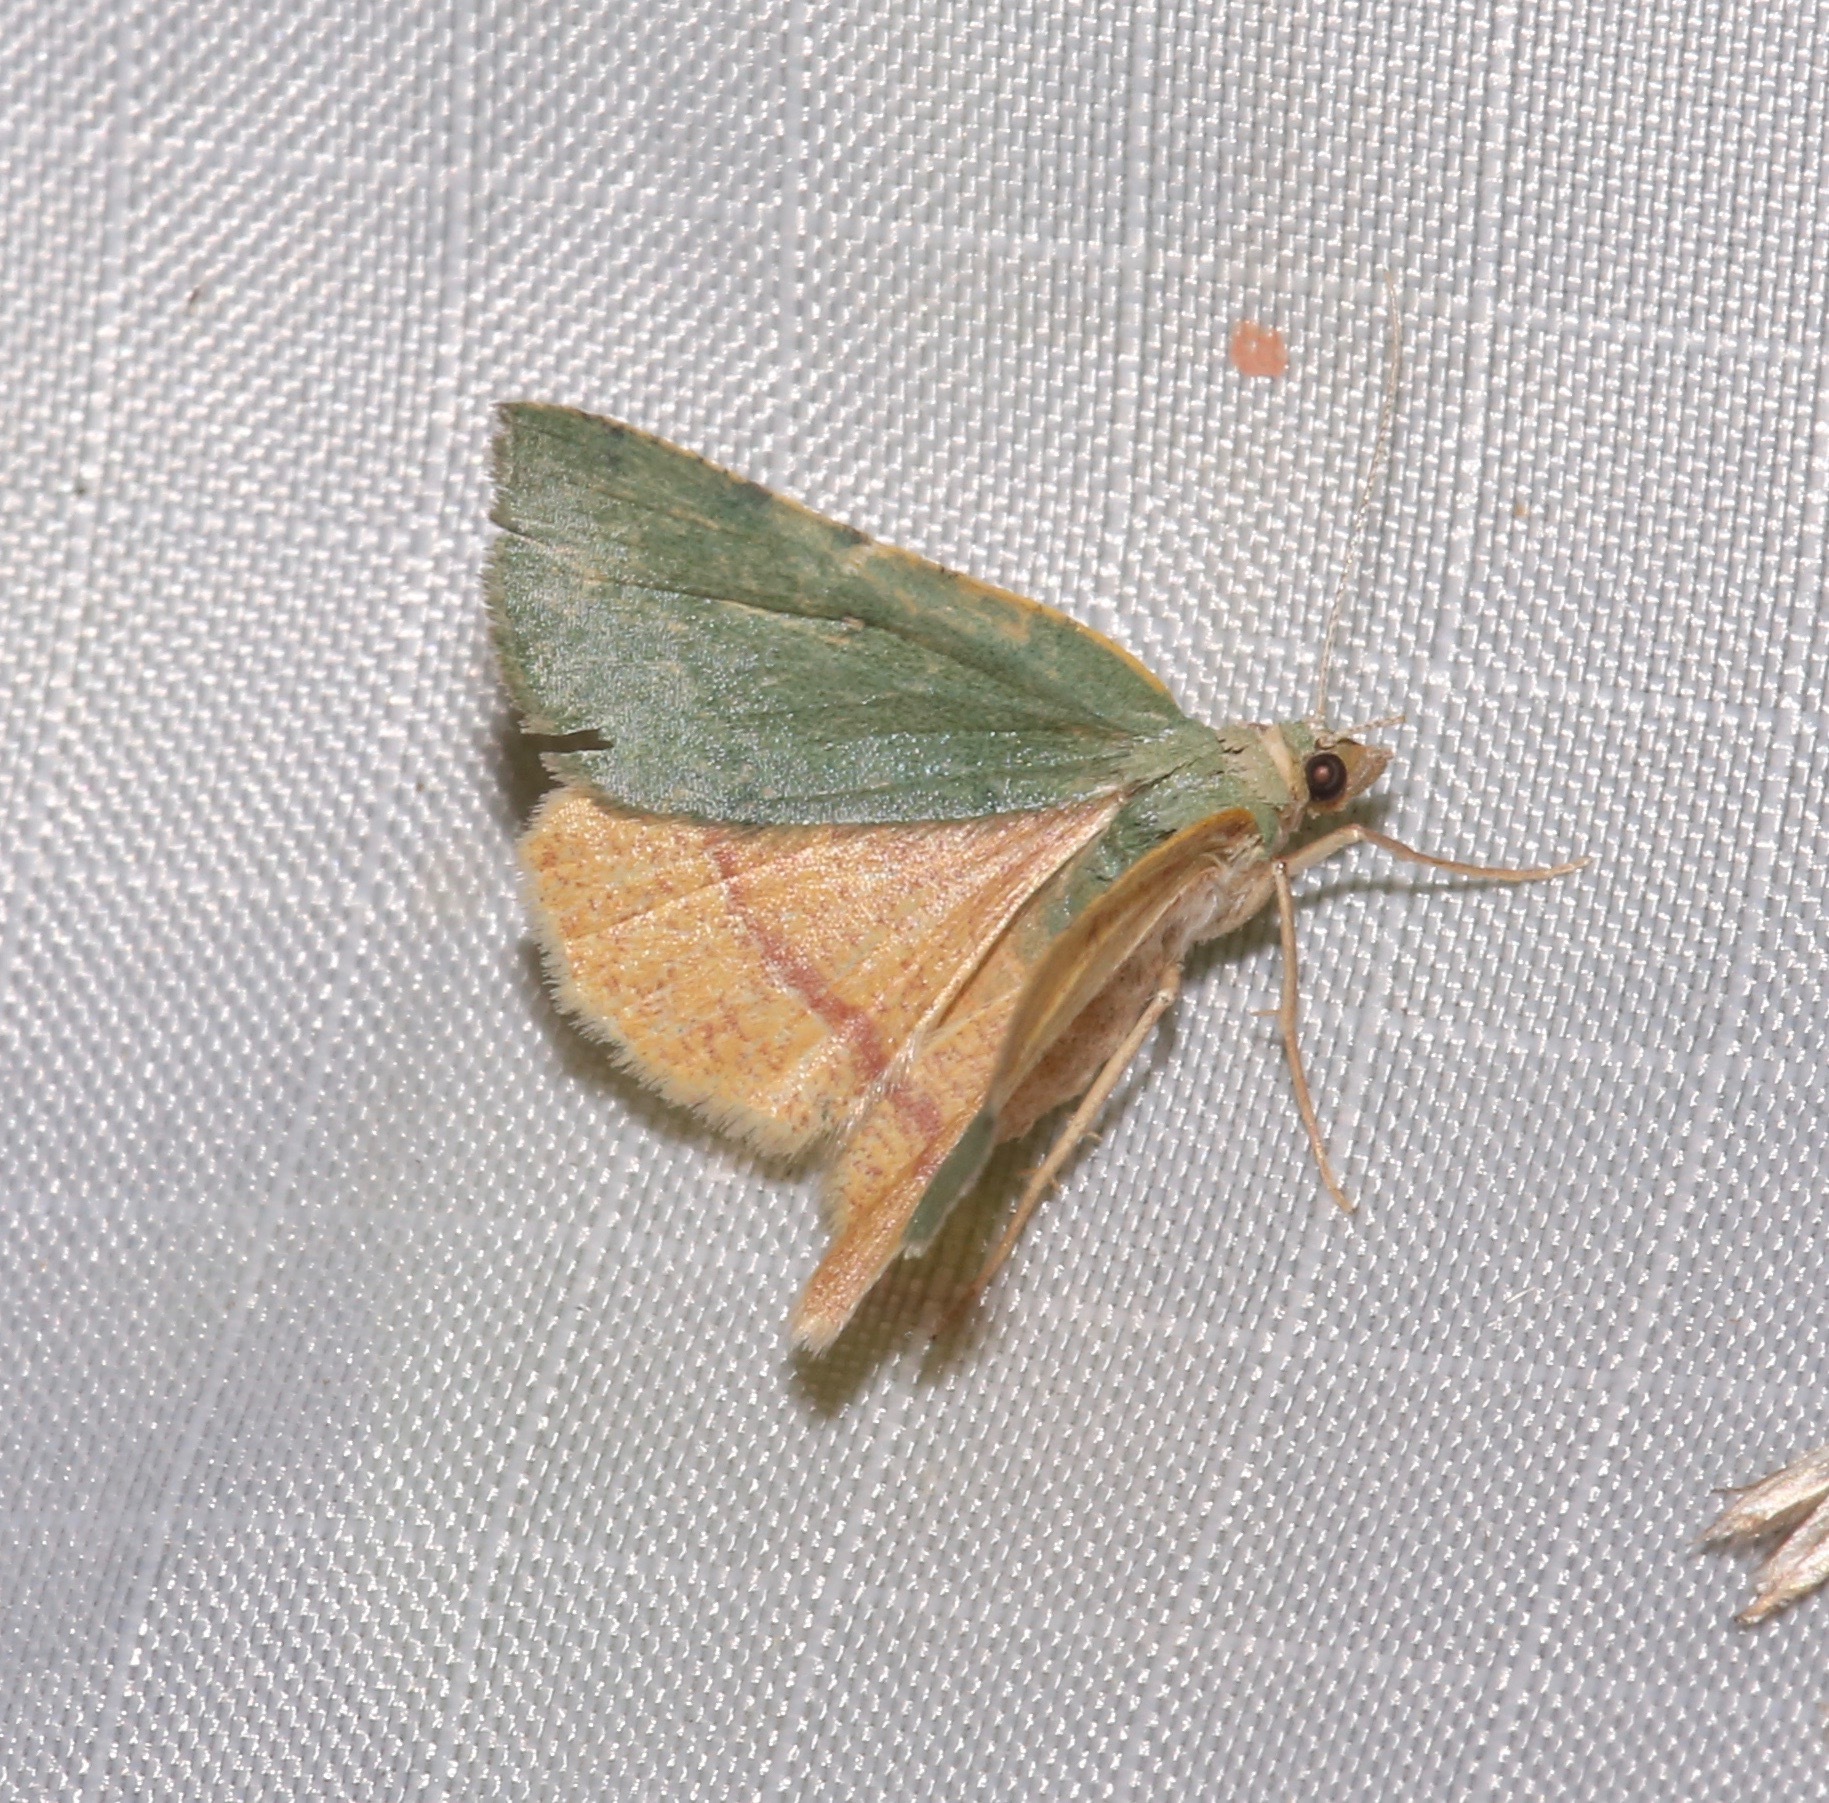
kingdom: Animalia
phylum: Arthropoda
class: Insecta
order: Lepidoptera
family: Geometridae
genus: Chloraspilates
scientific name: Chloraspilates bicoloraria
